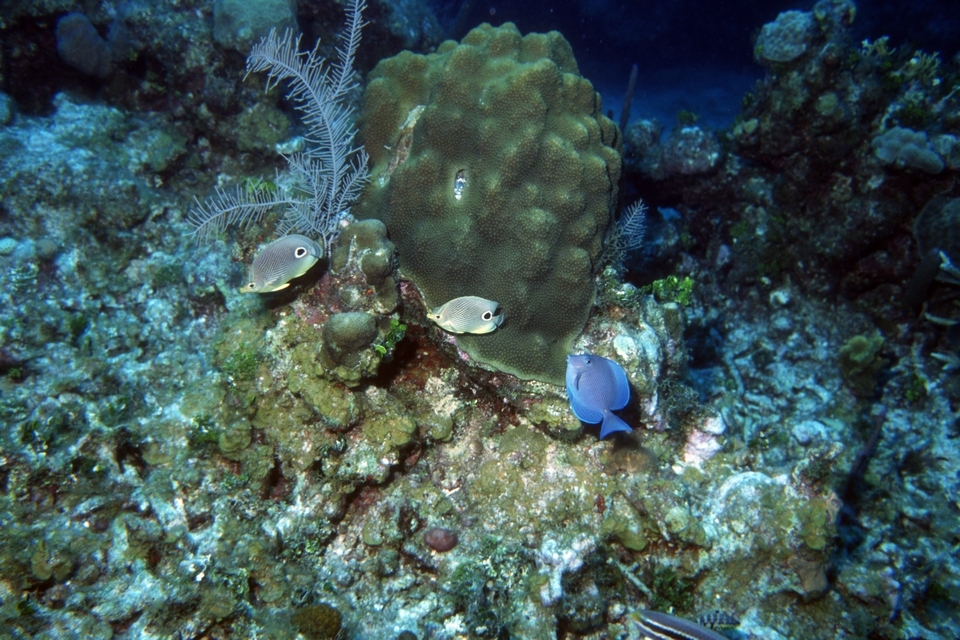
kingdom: Animalia
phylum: Chordata
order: Perciformes
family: Chaetodontidae
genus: Chaetodon
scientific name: Chaetodon capistratus
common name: Kete
